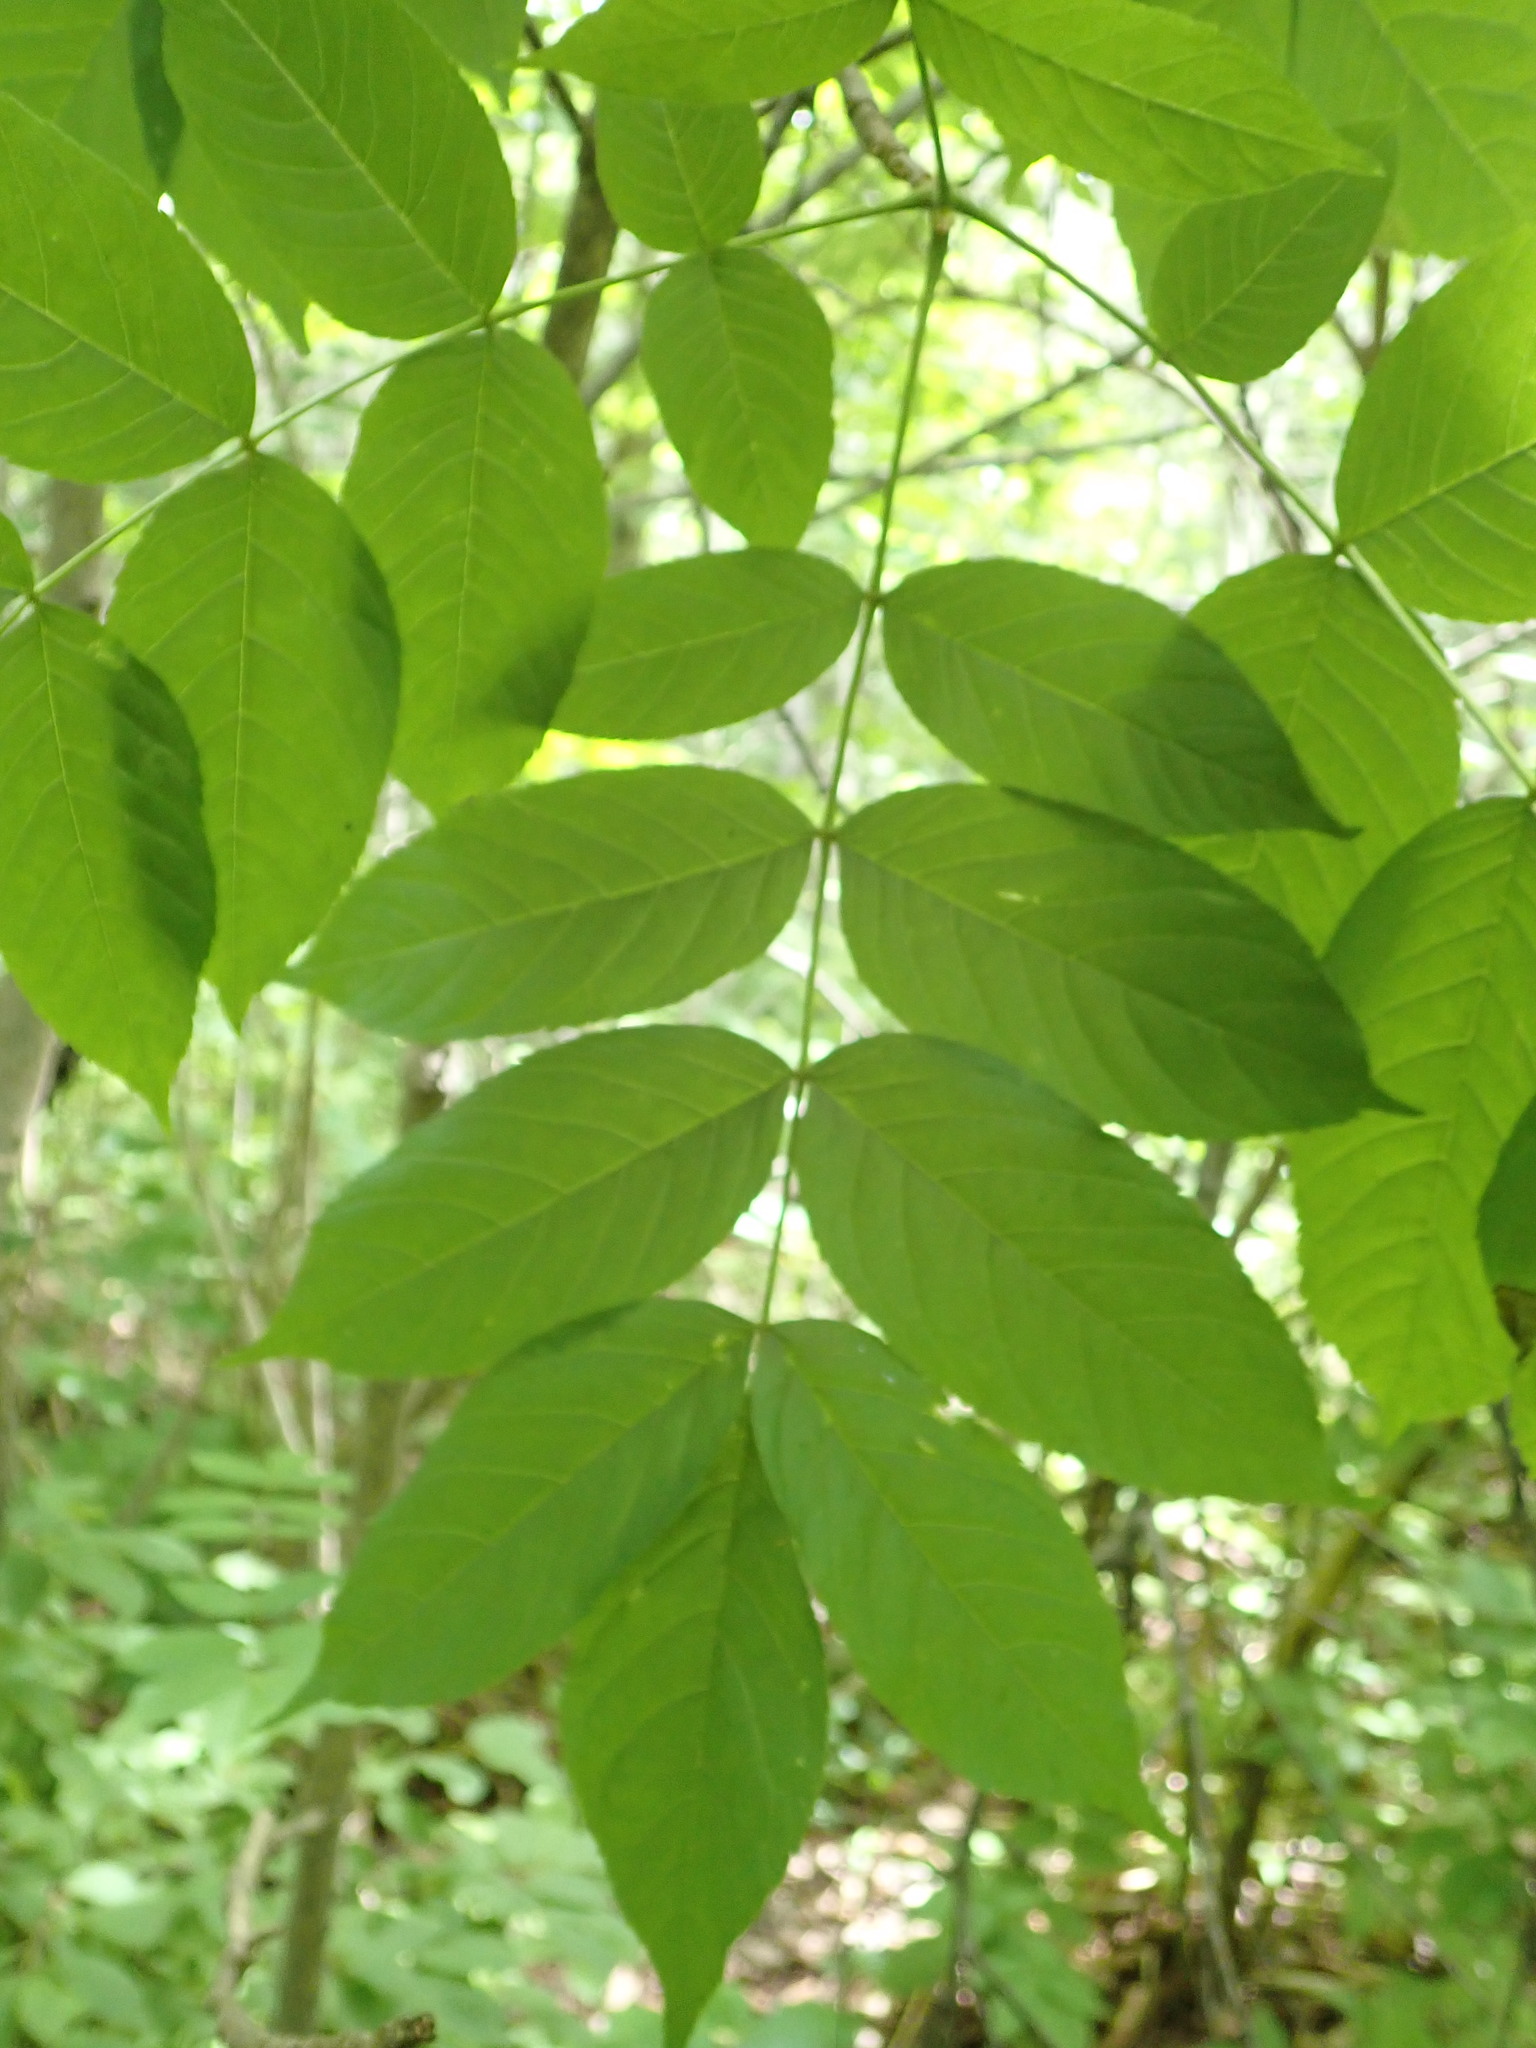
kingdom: Plantae
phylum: Tracheophyta
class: Magnoliopsida
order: Lamiales
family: Oleaceae
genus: Fraxinus
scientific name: Fraxinus nigra
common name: Black ash
